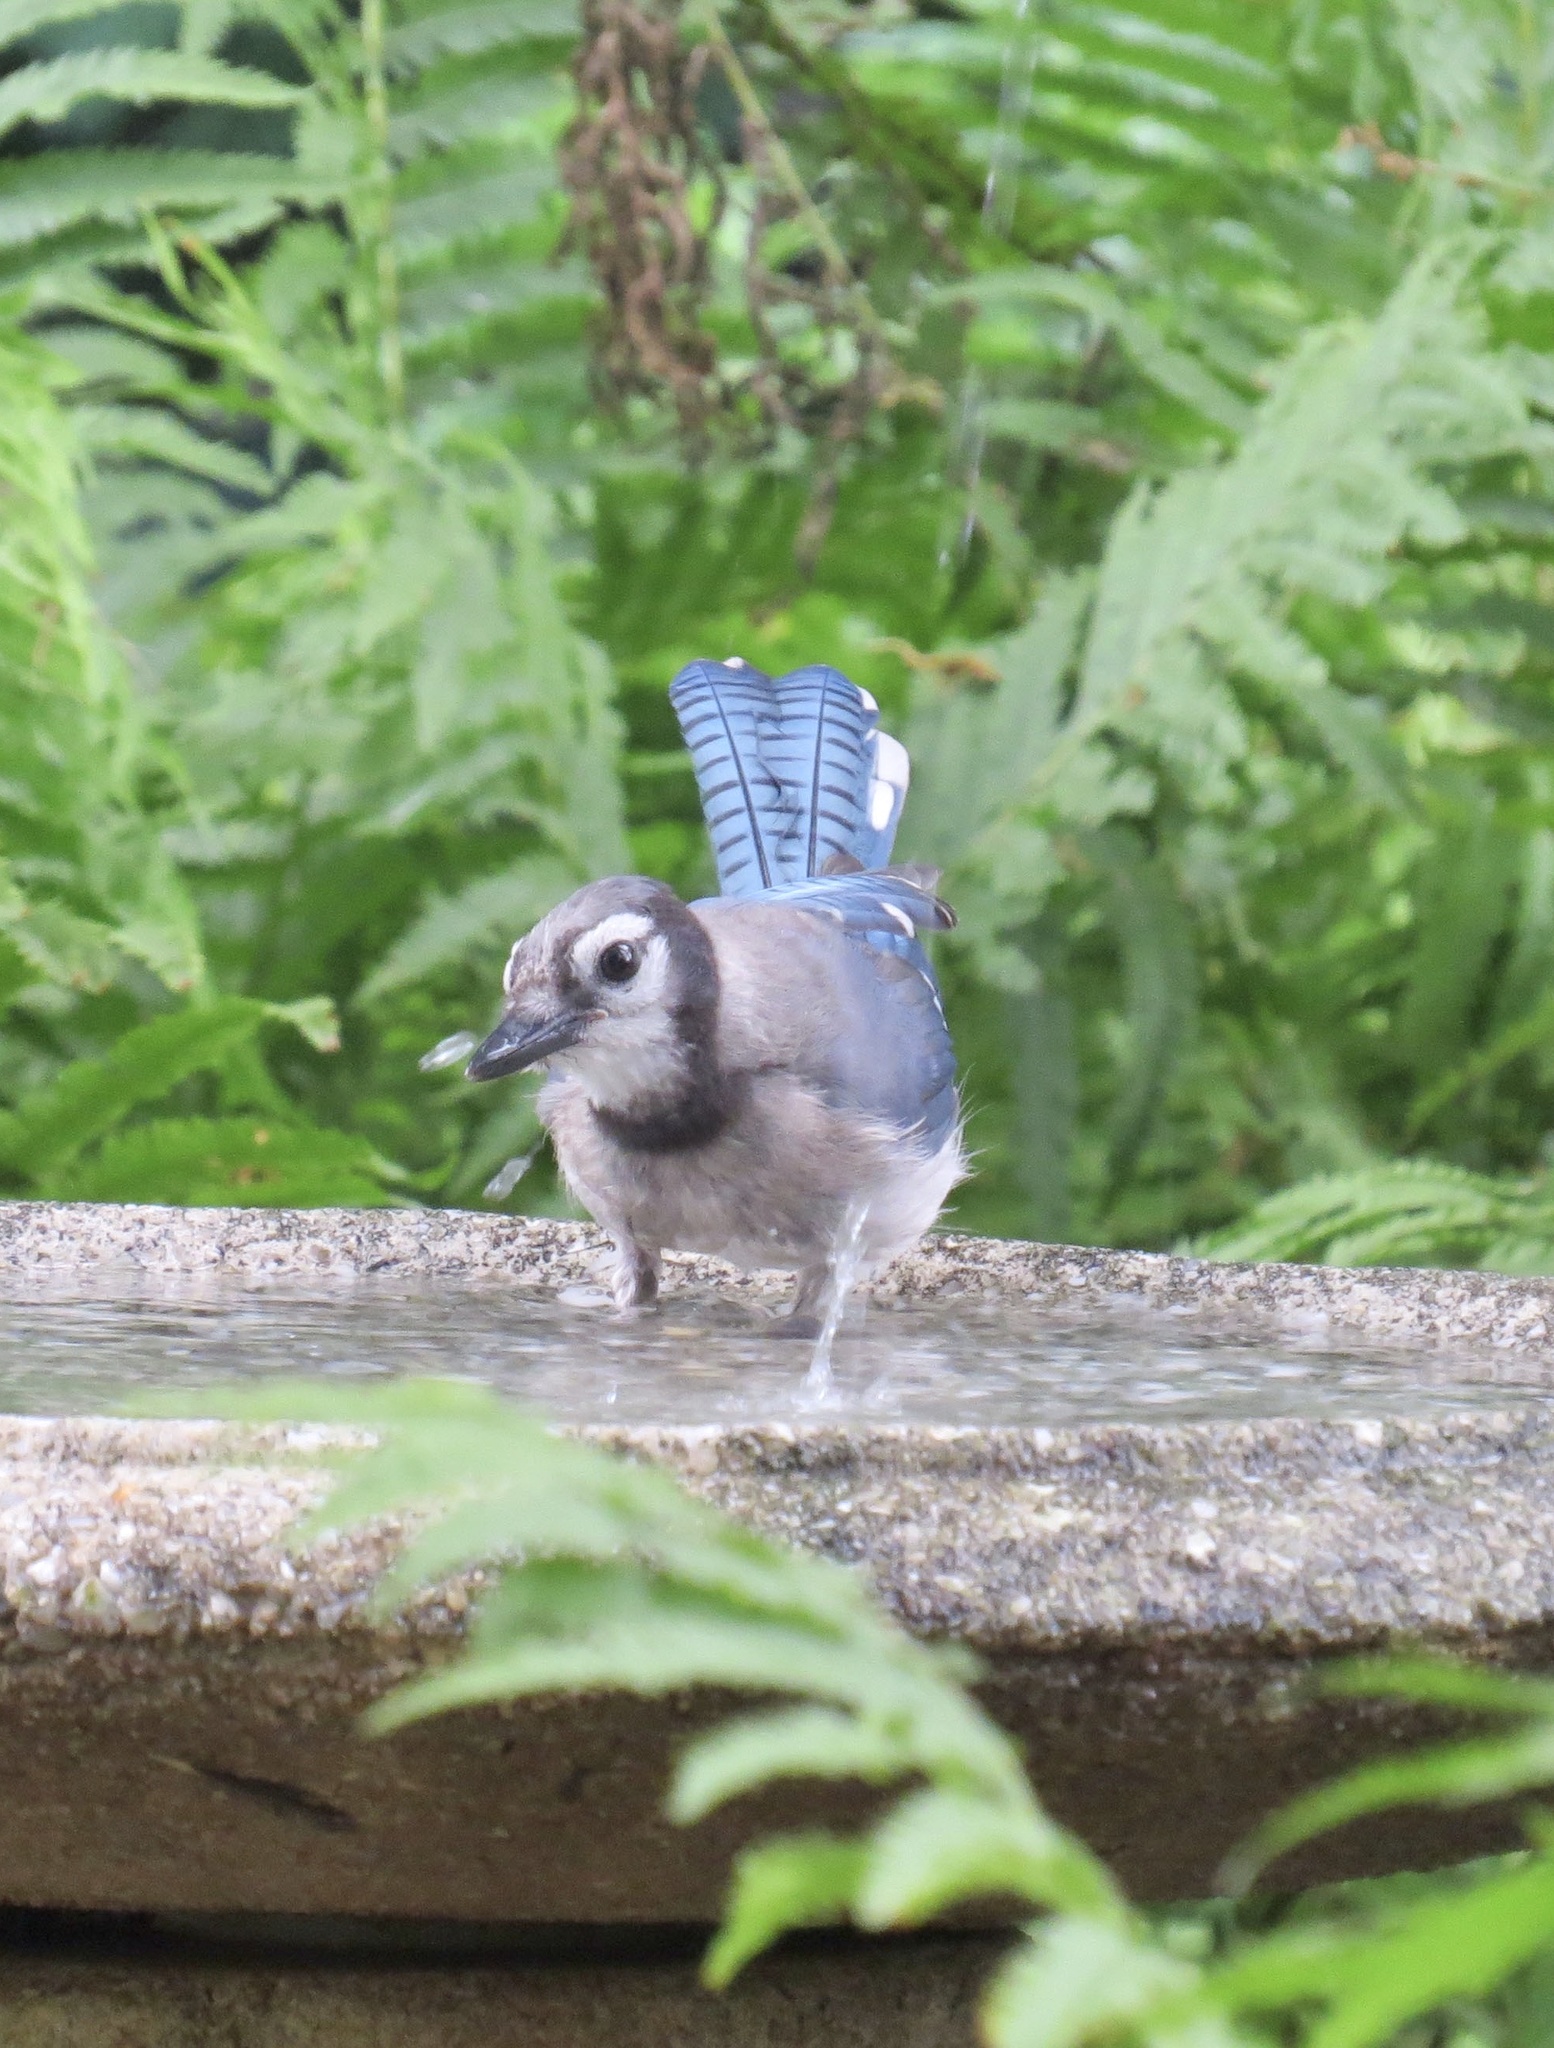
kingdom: Animalia
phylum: Chordata
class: Aves
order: Passeriformes
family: Corvidae
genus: Cyanocitta
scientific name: Cyanocitta cristata
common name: Blue jay
